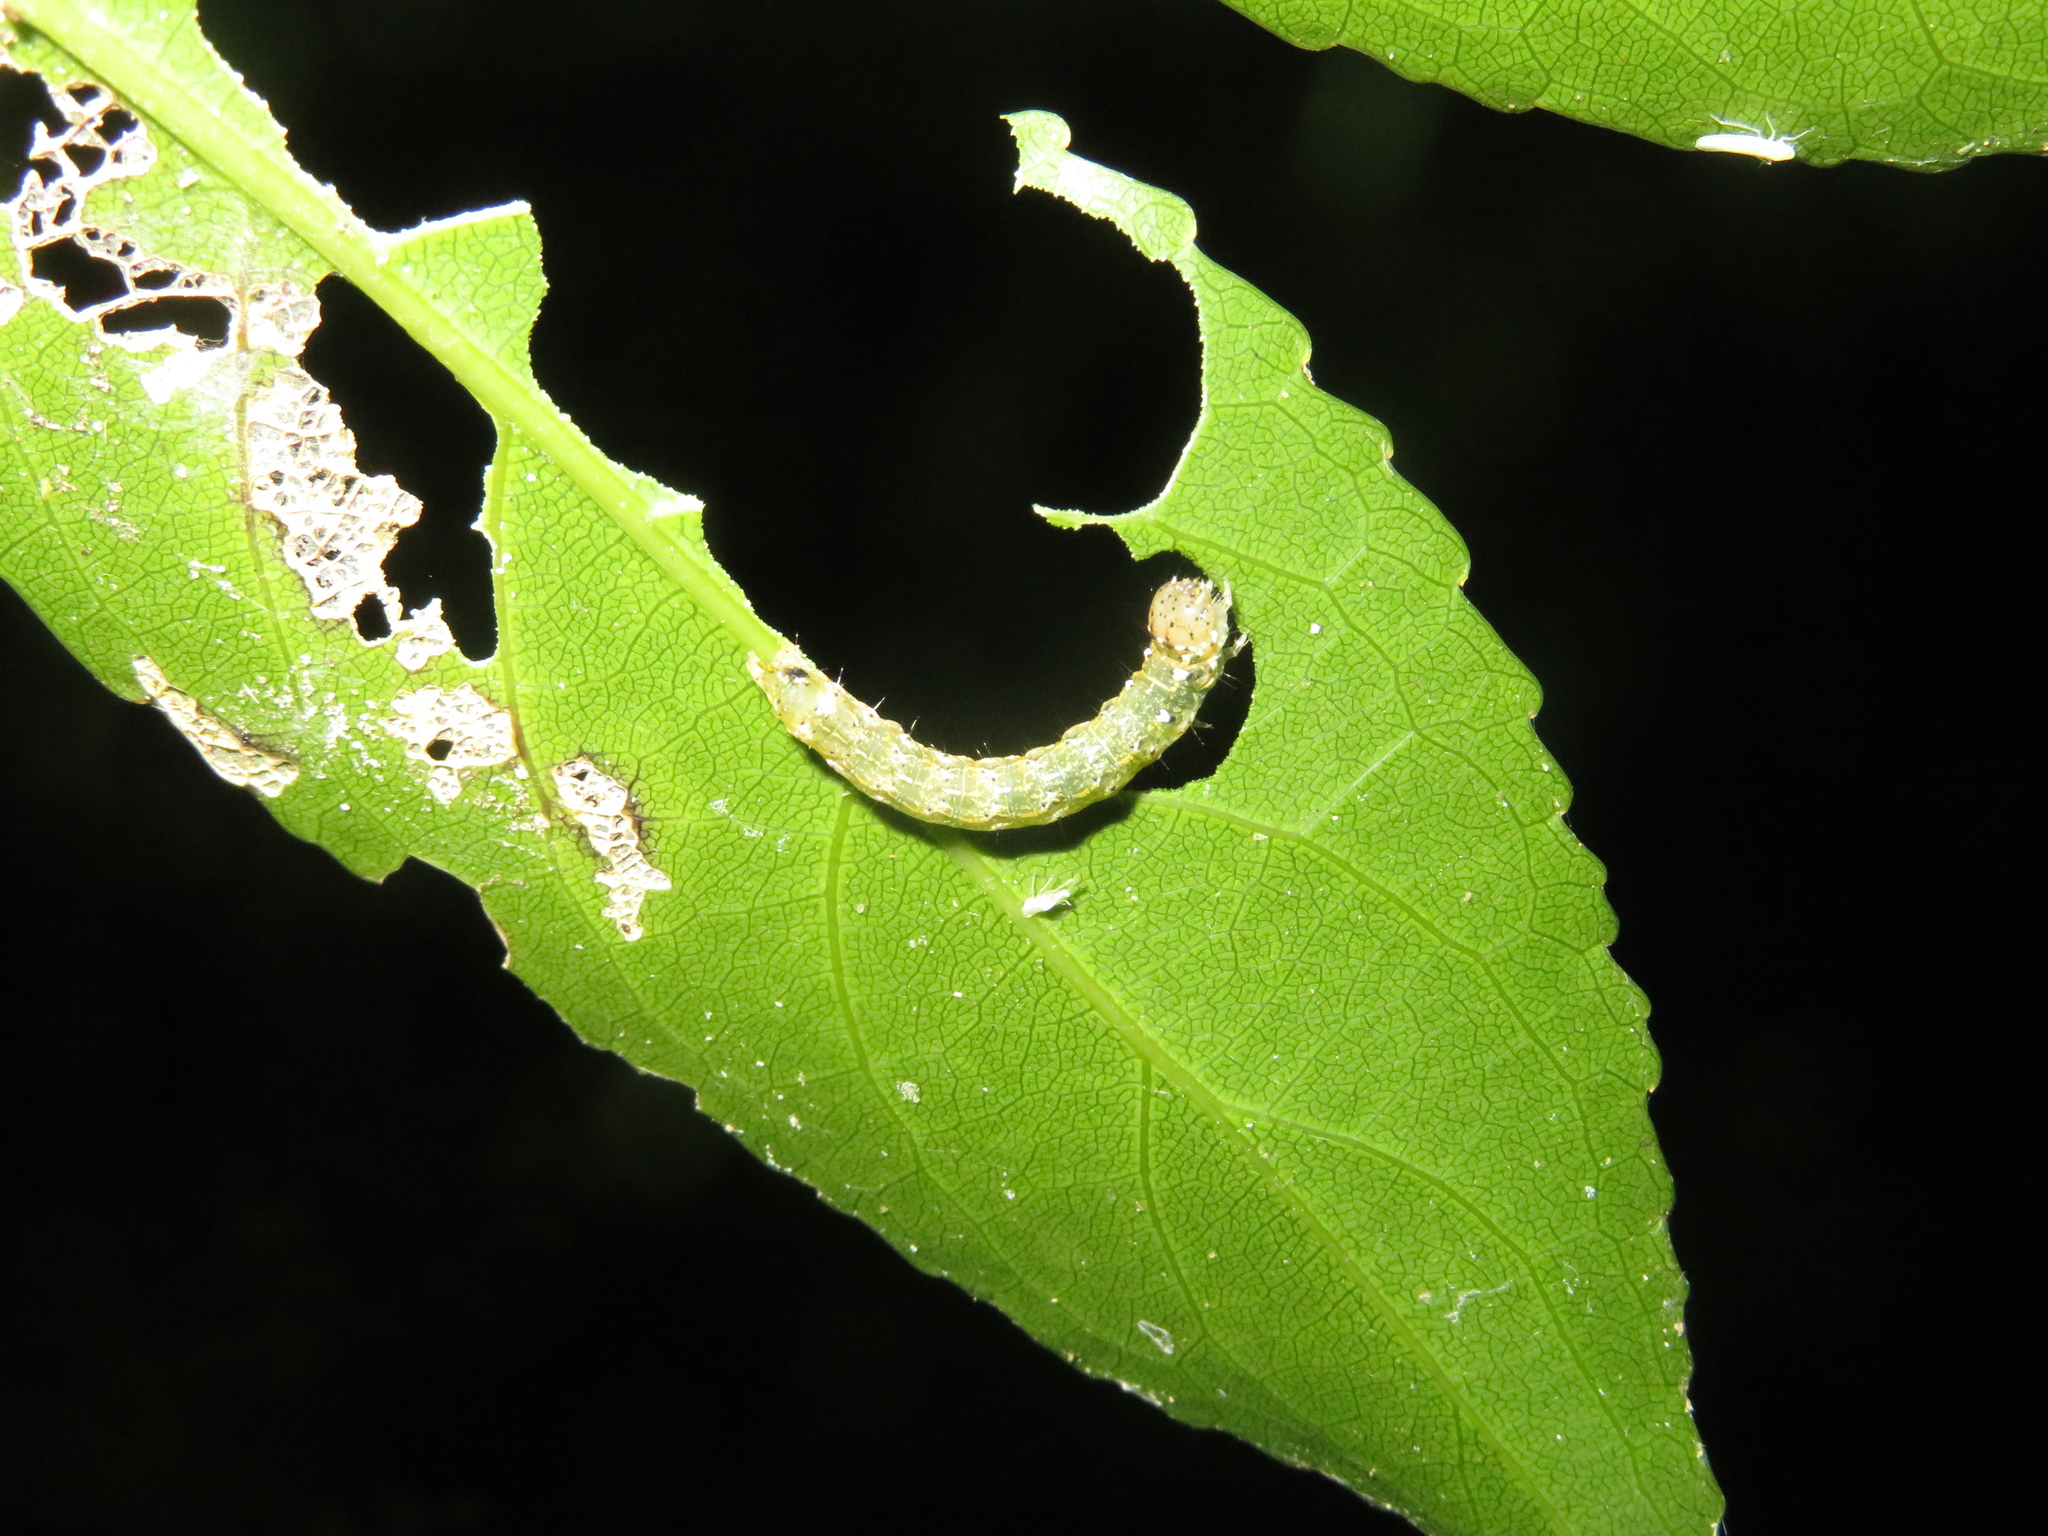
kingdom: Animalia
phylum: Arthropoda
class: Insecta
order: Lepidoptera
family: Noctuidae
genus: Feredayia
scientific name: Feredayia grammosa
